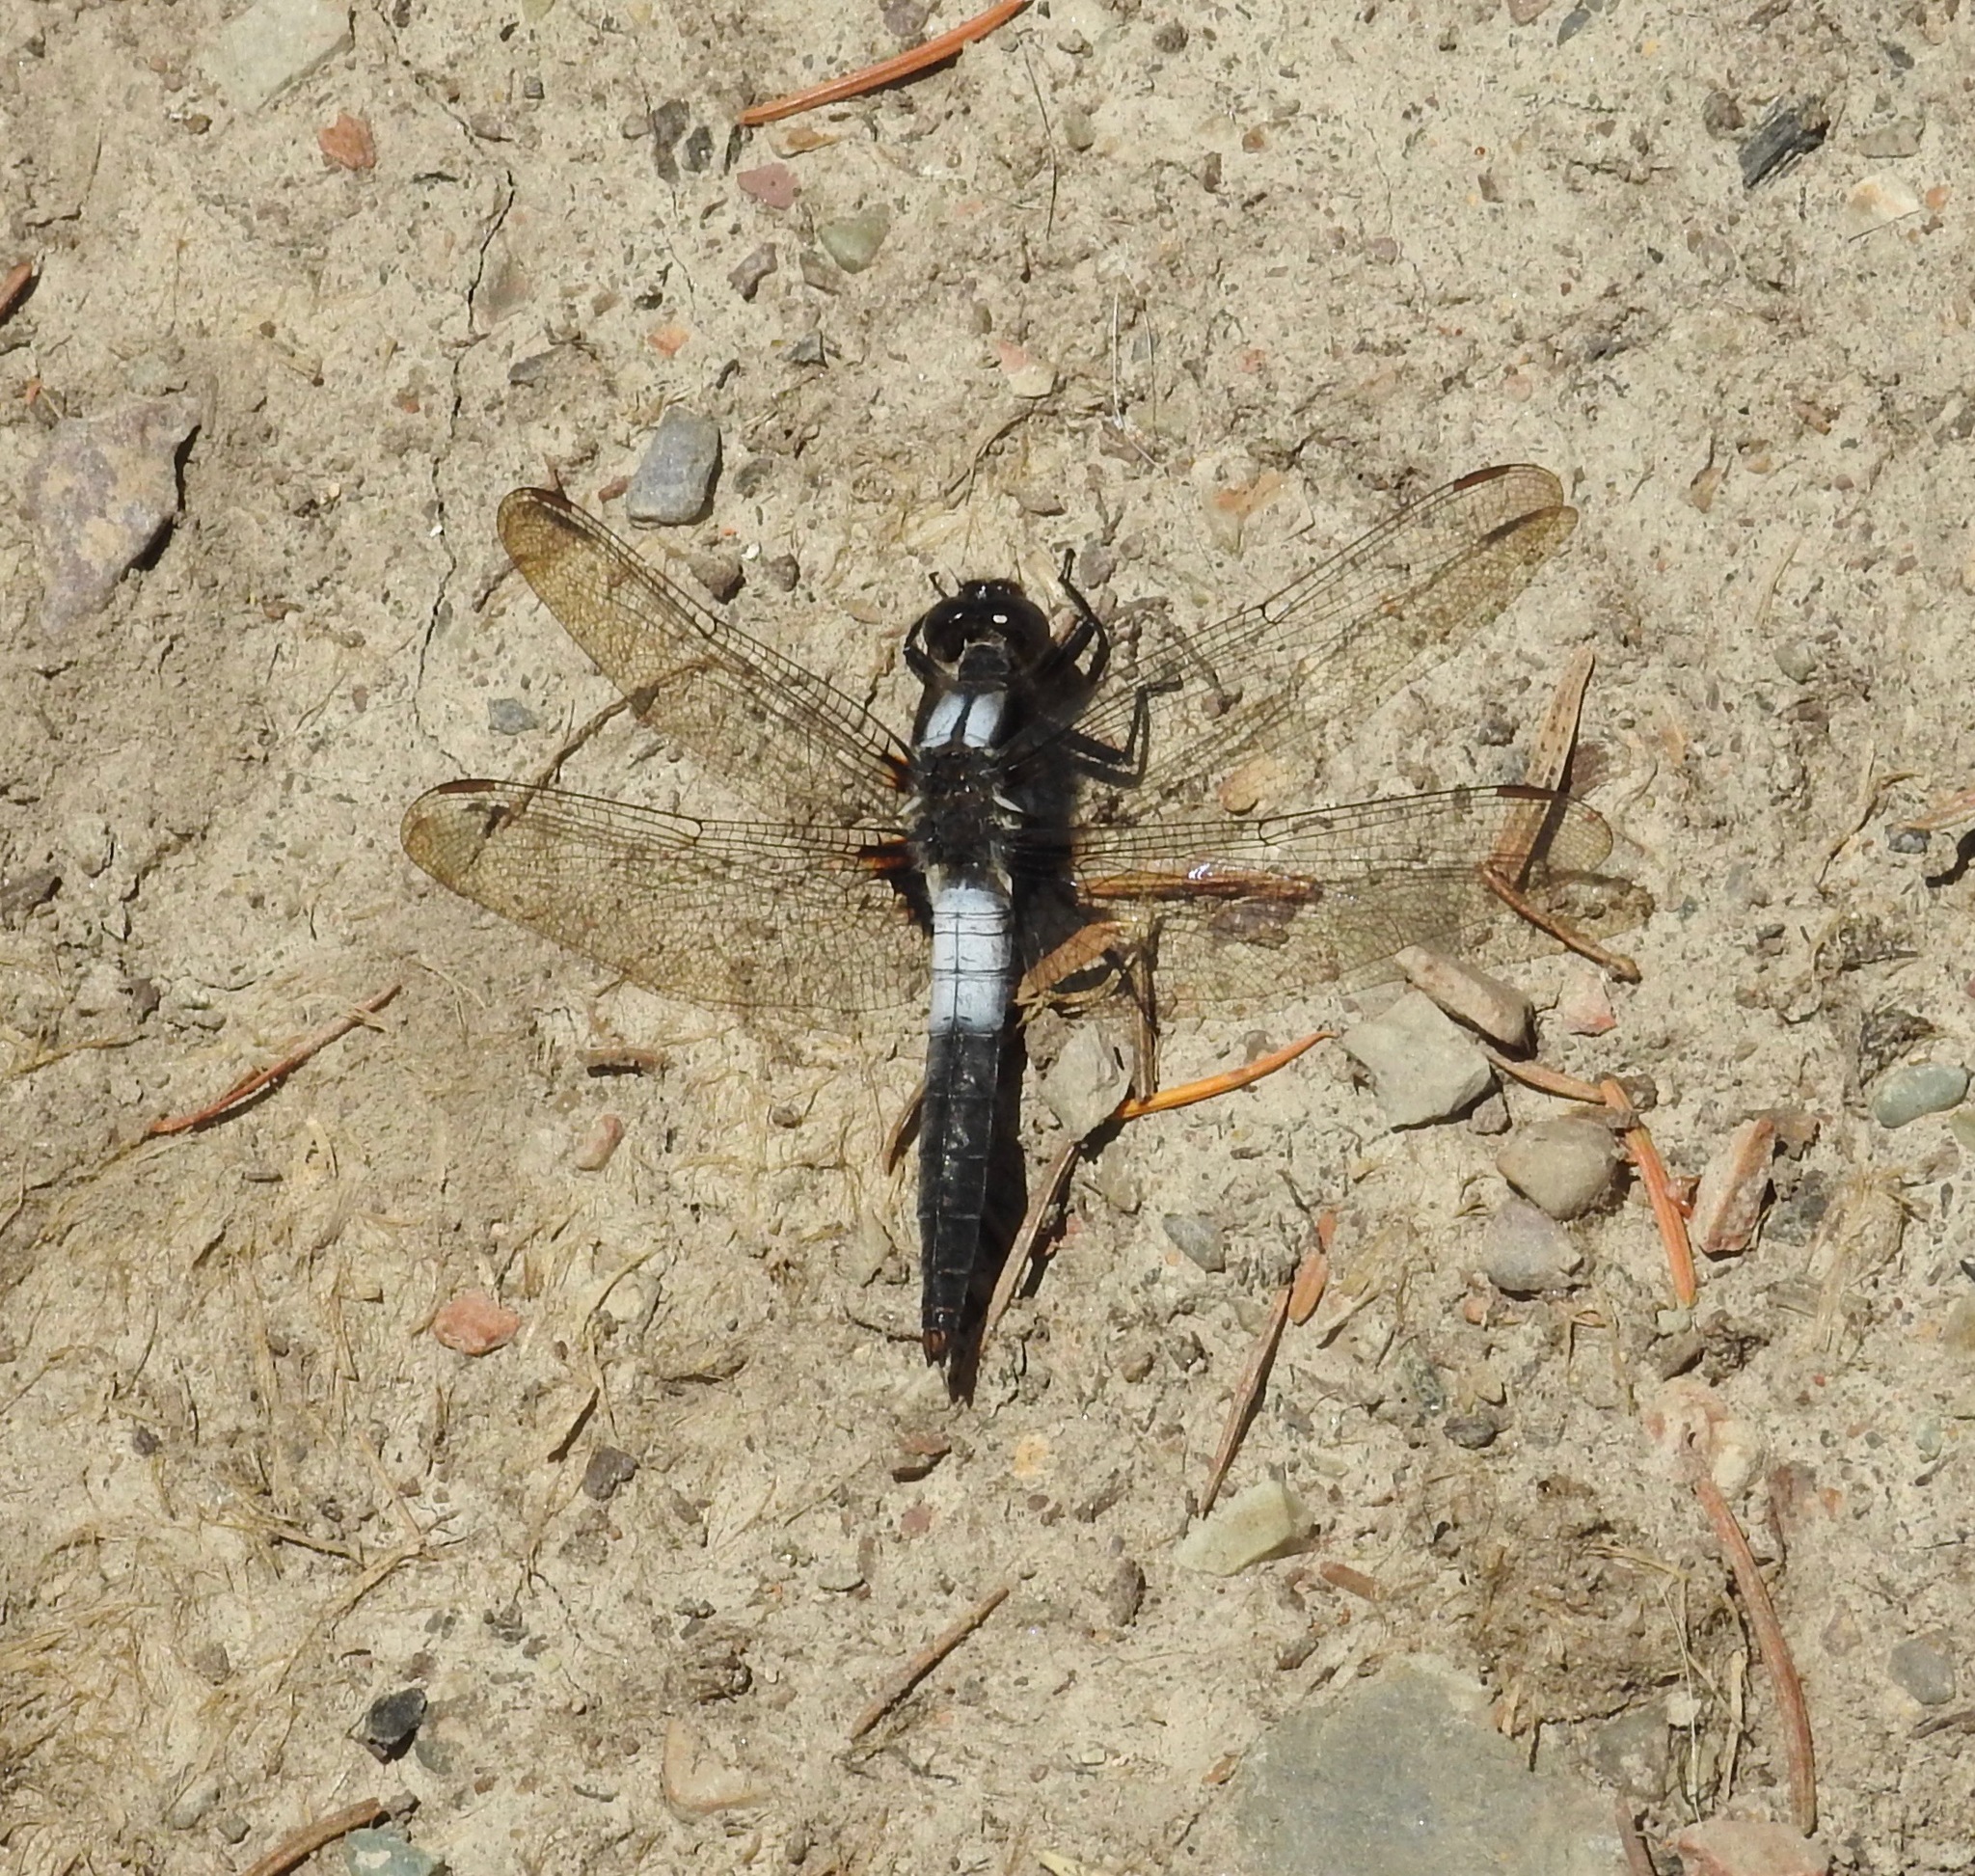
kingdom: Animalia
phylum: Arthropoda
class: Insecta
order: Odonata
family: Libellulidae
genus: Ladona
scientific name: Ladona julia
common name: Chalk-fronted corporal
